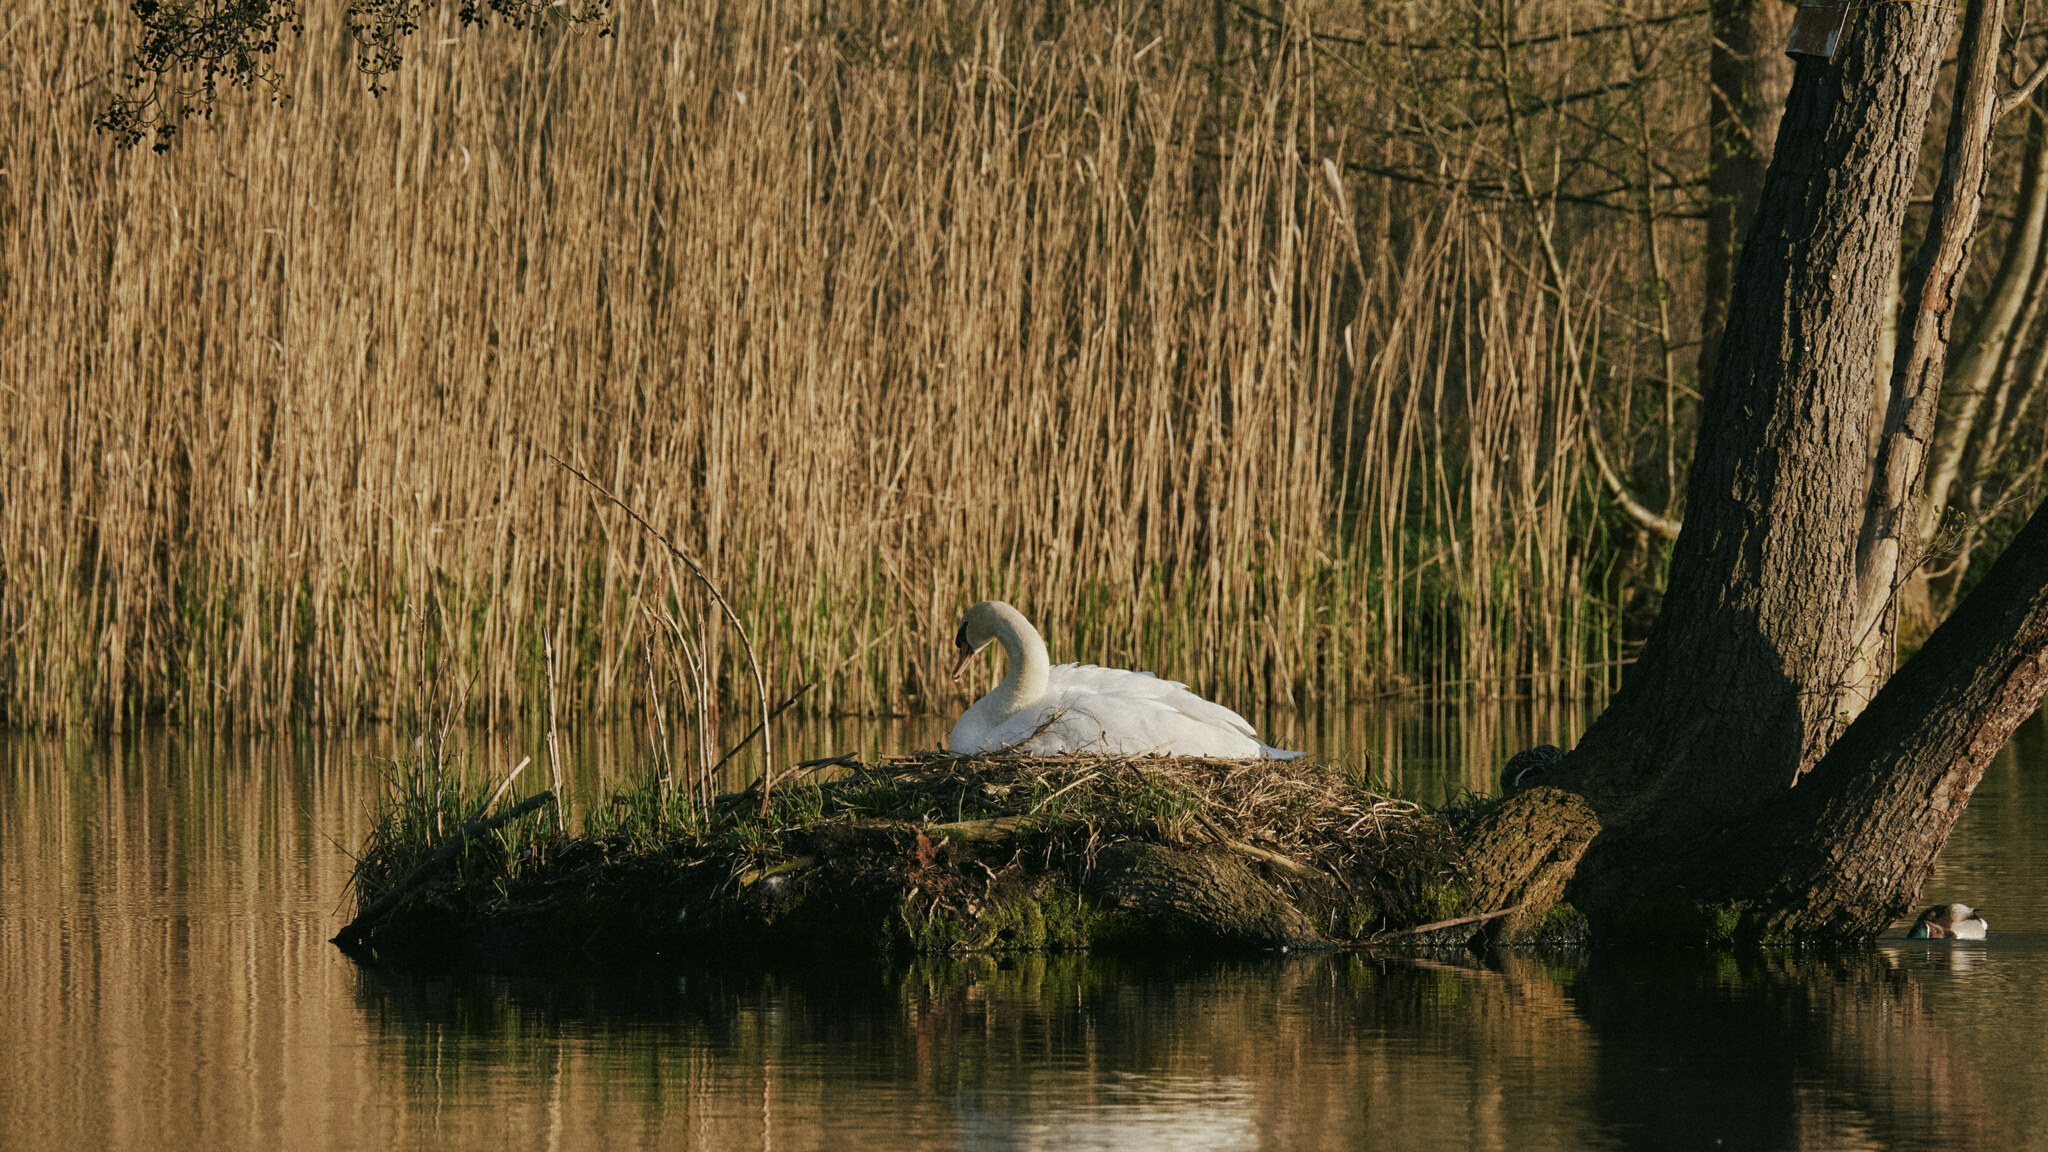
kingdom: Animalia
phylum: Chordata
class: Aves
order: Anseriformes
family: Anatidae
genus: Cygnus
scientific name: Cygnus olor
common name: Mute swan
